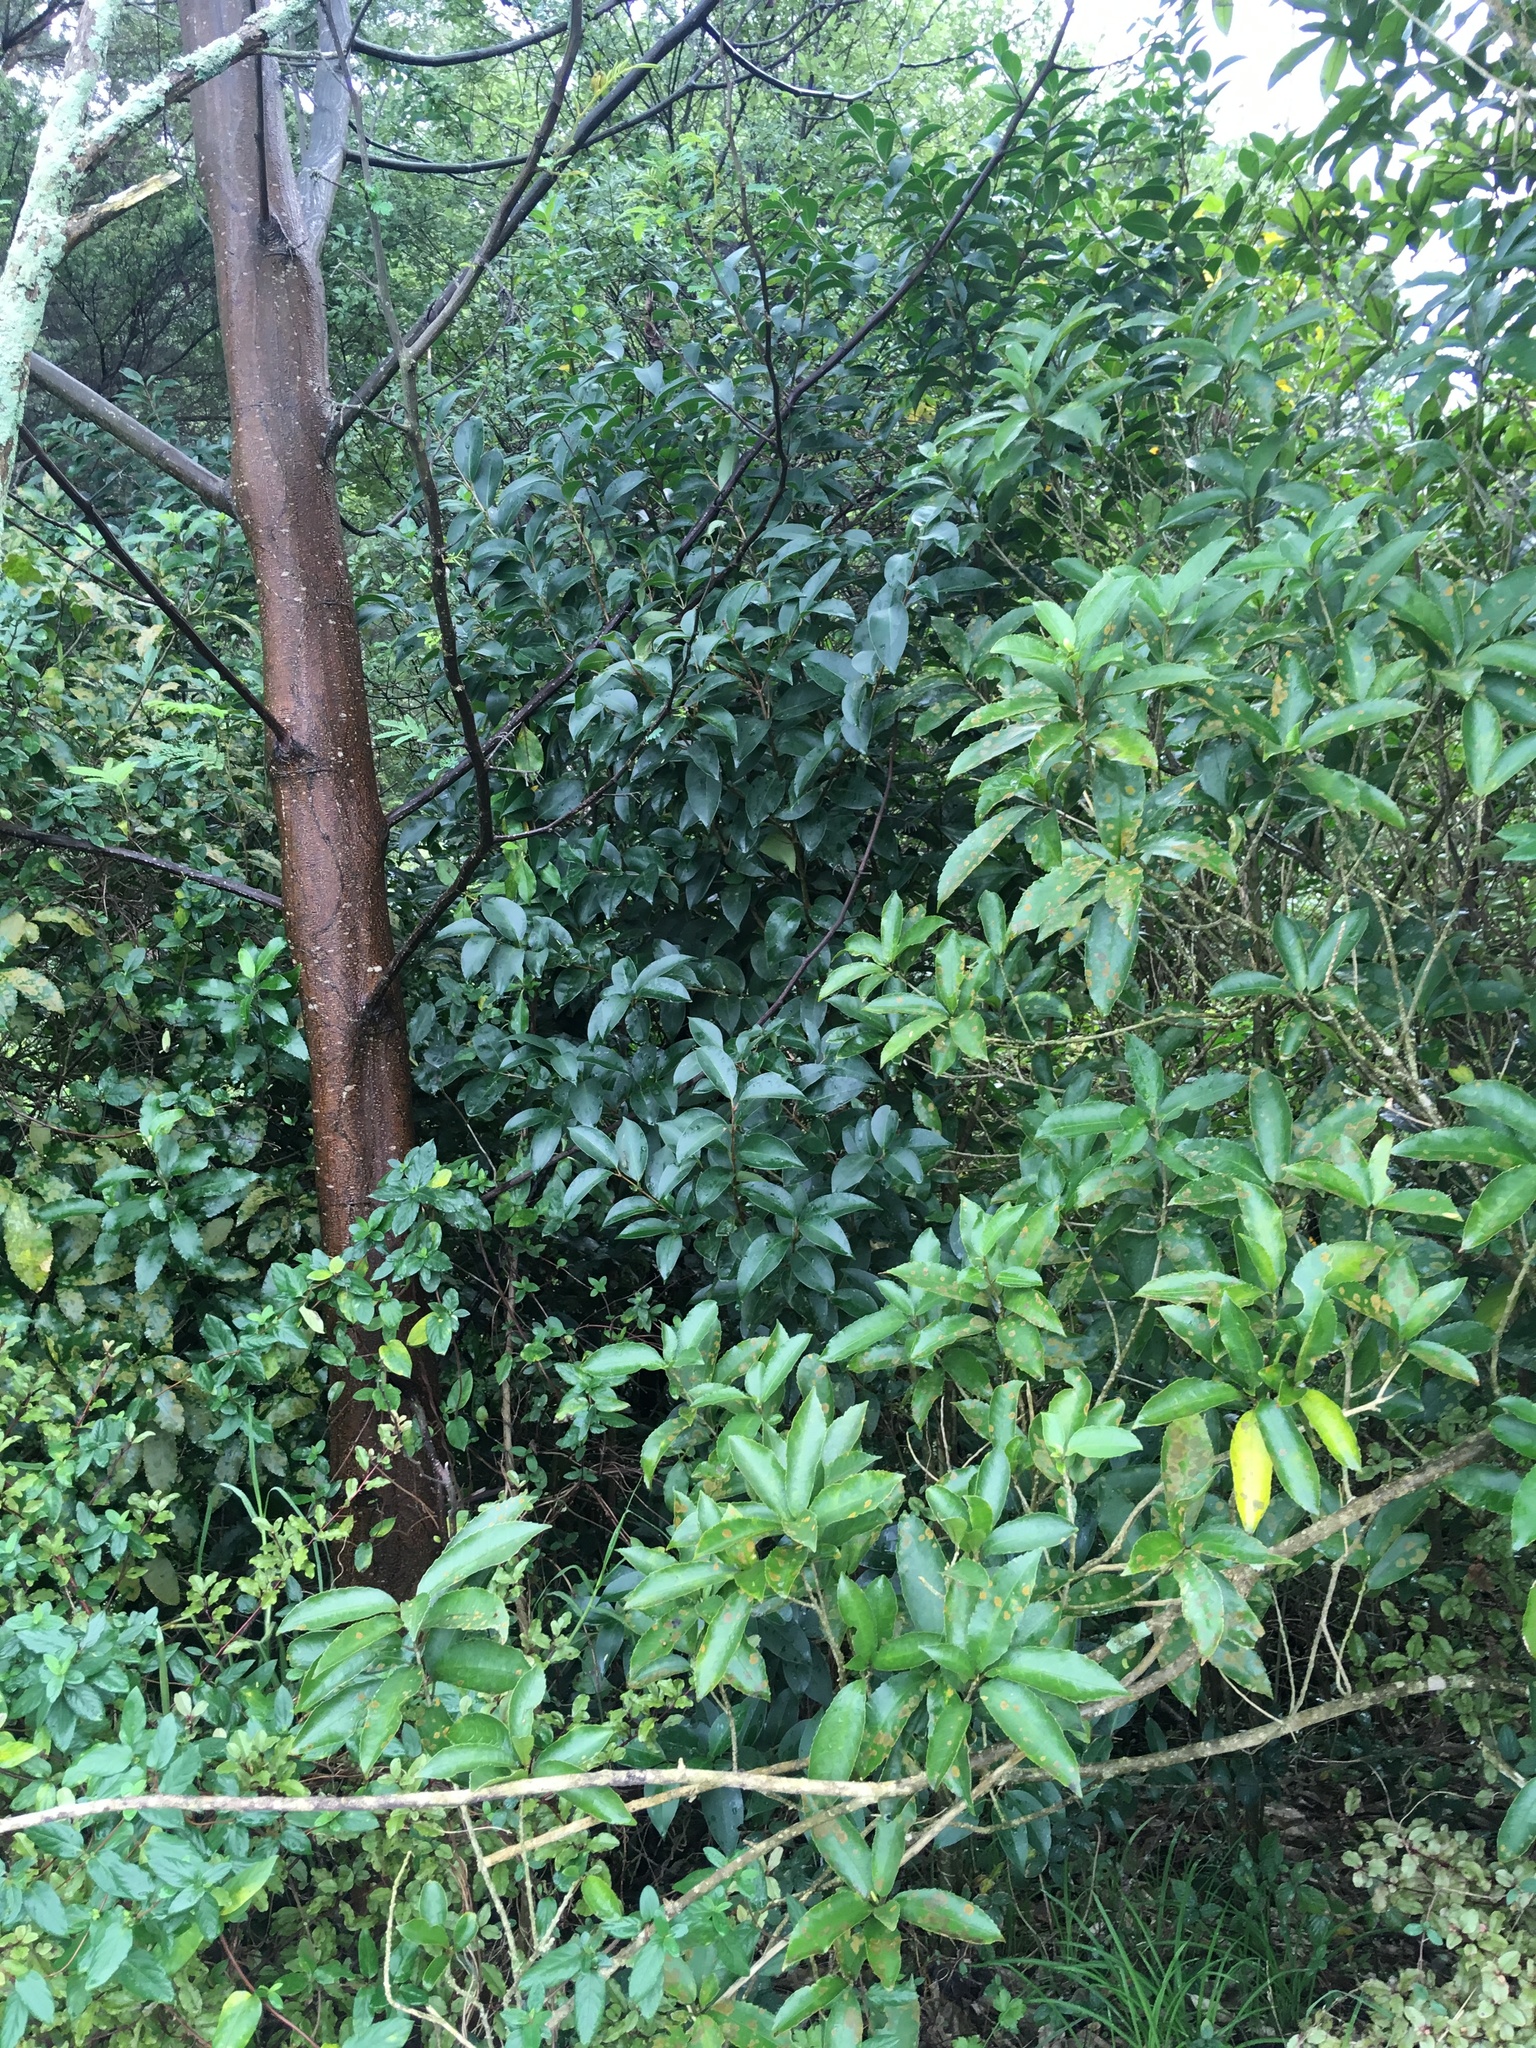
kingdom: Plantae
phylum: Tracheophyta
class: Magnoliopsida
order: Lamiales
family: Oleaceae
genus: Ligustrum
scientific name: Ligustrum lucidum
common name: Glossy privet
